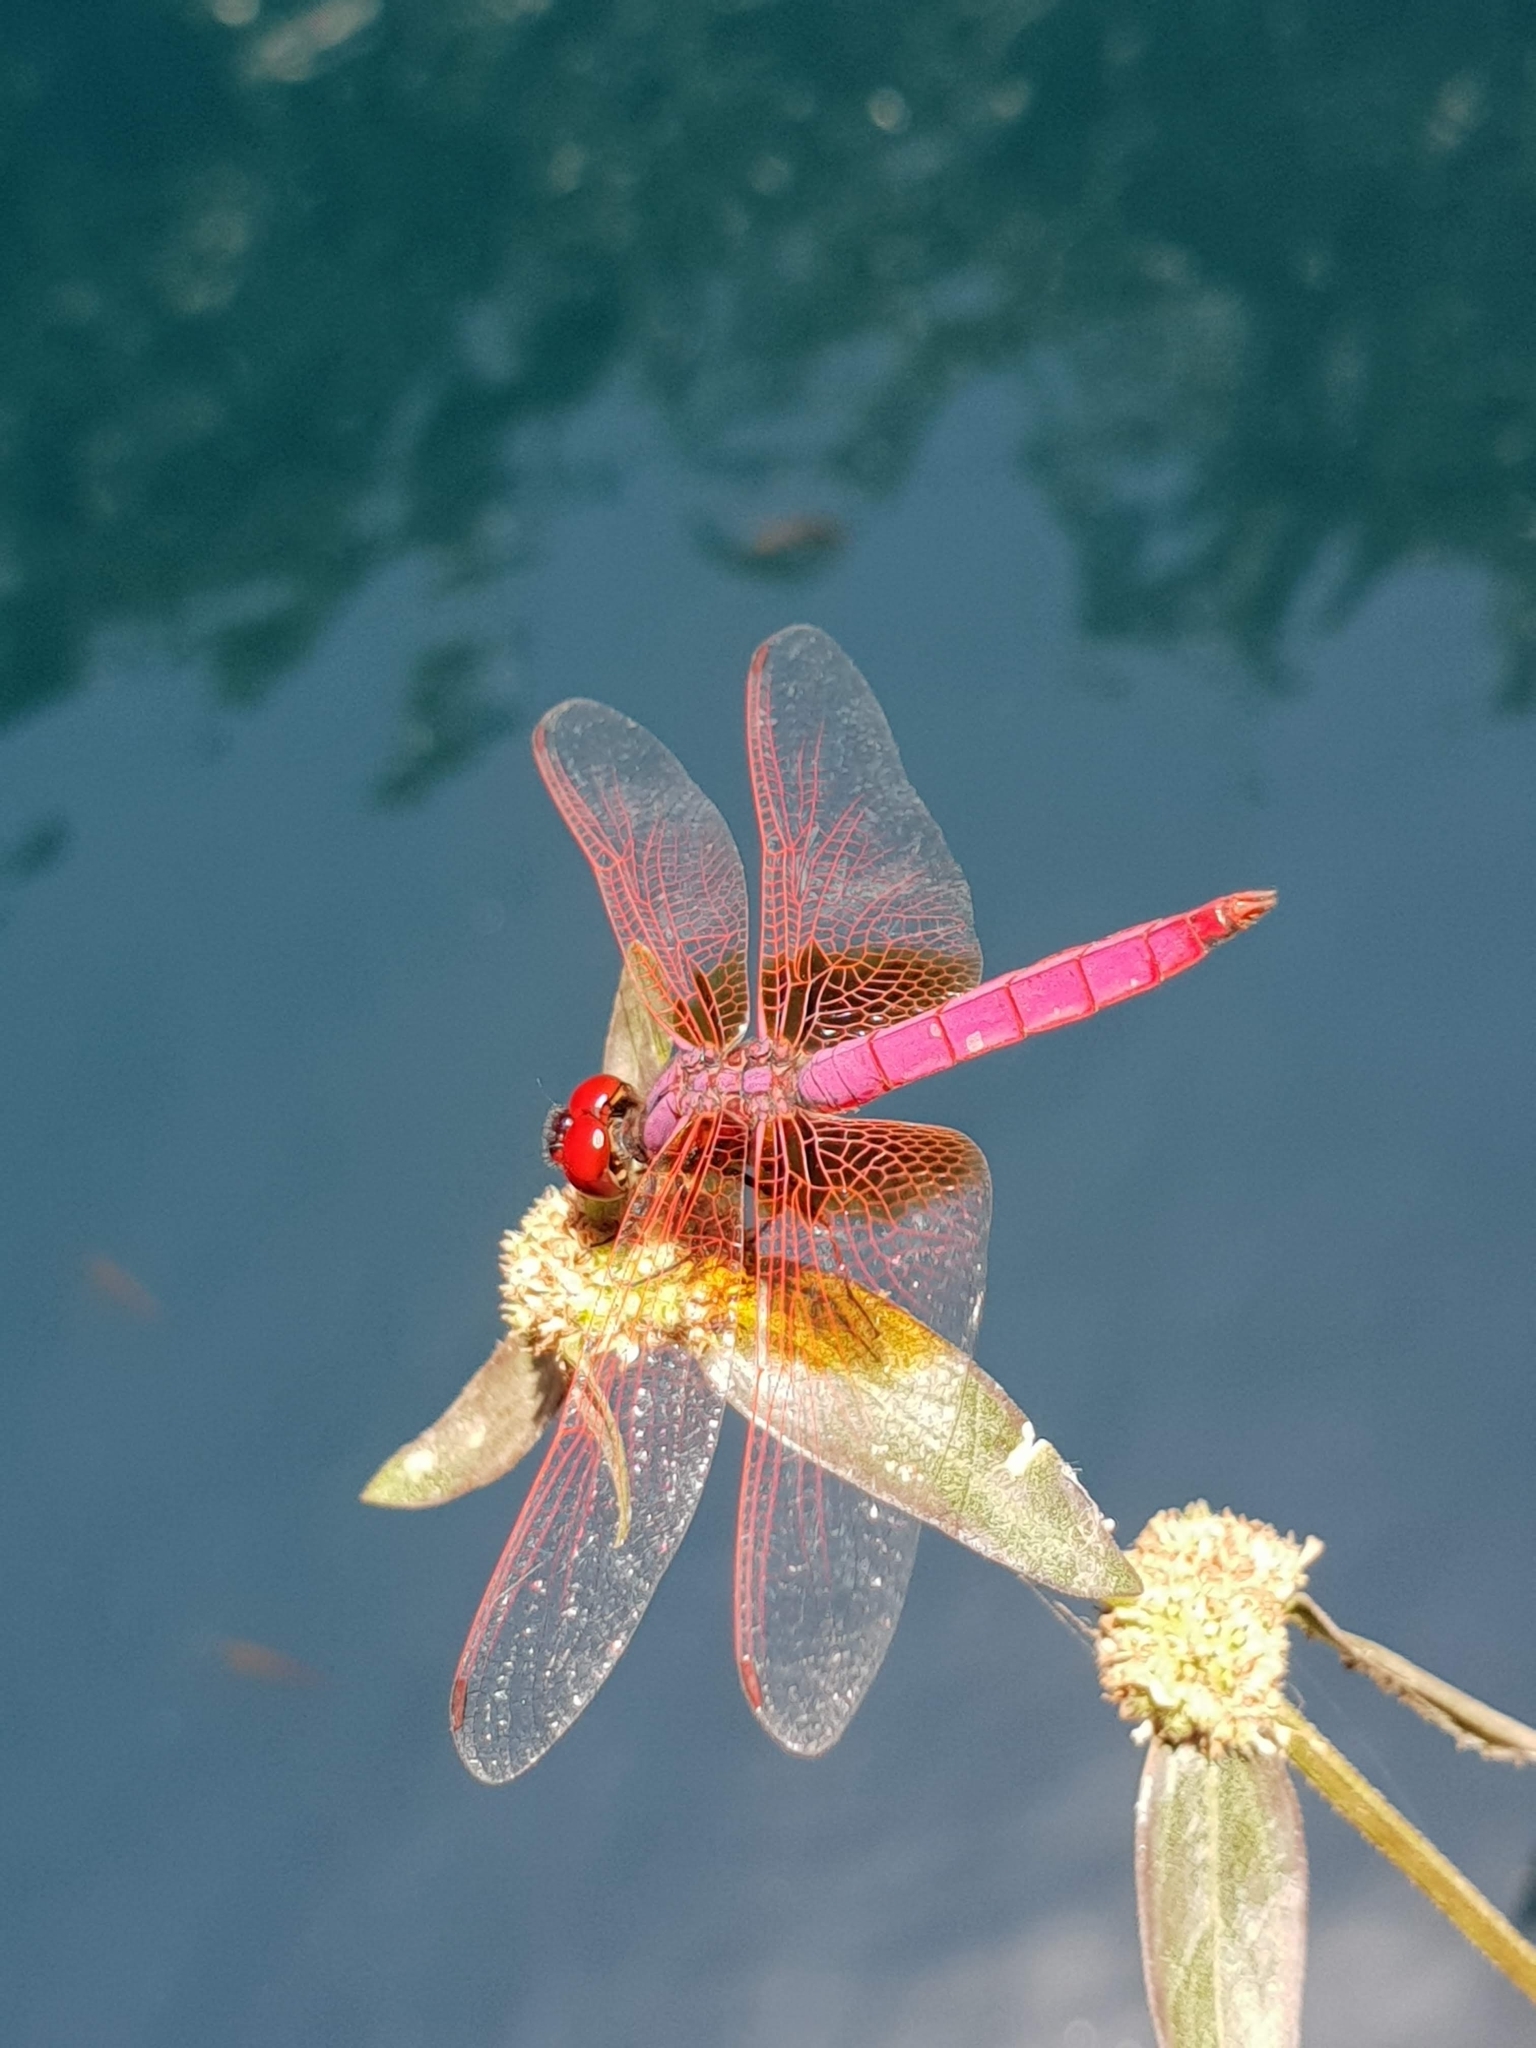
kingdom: Animalia
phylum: Arthropoda
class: Insecta
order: Odonata
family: Libellulidae
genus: Trithemis
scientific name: Trithemis aurora
